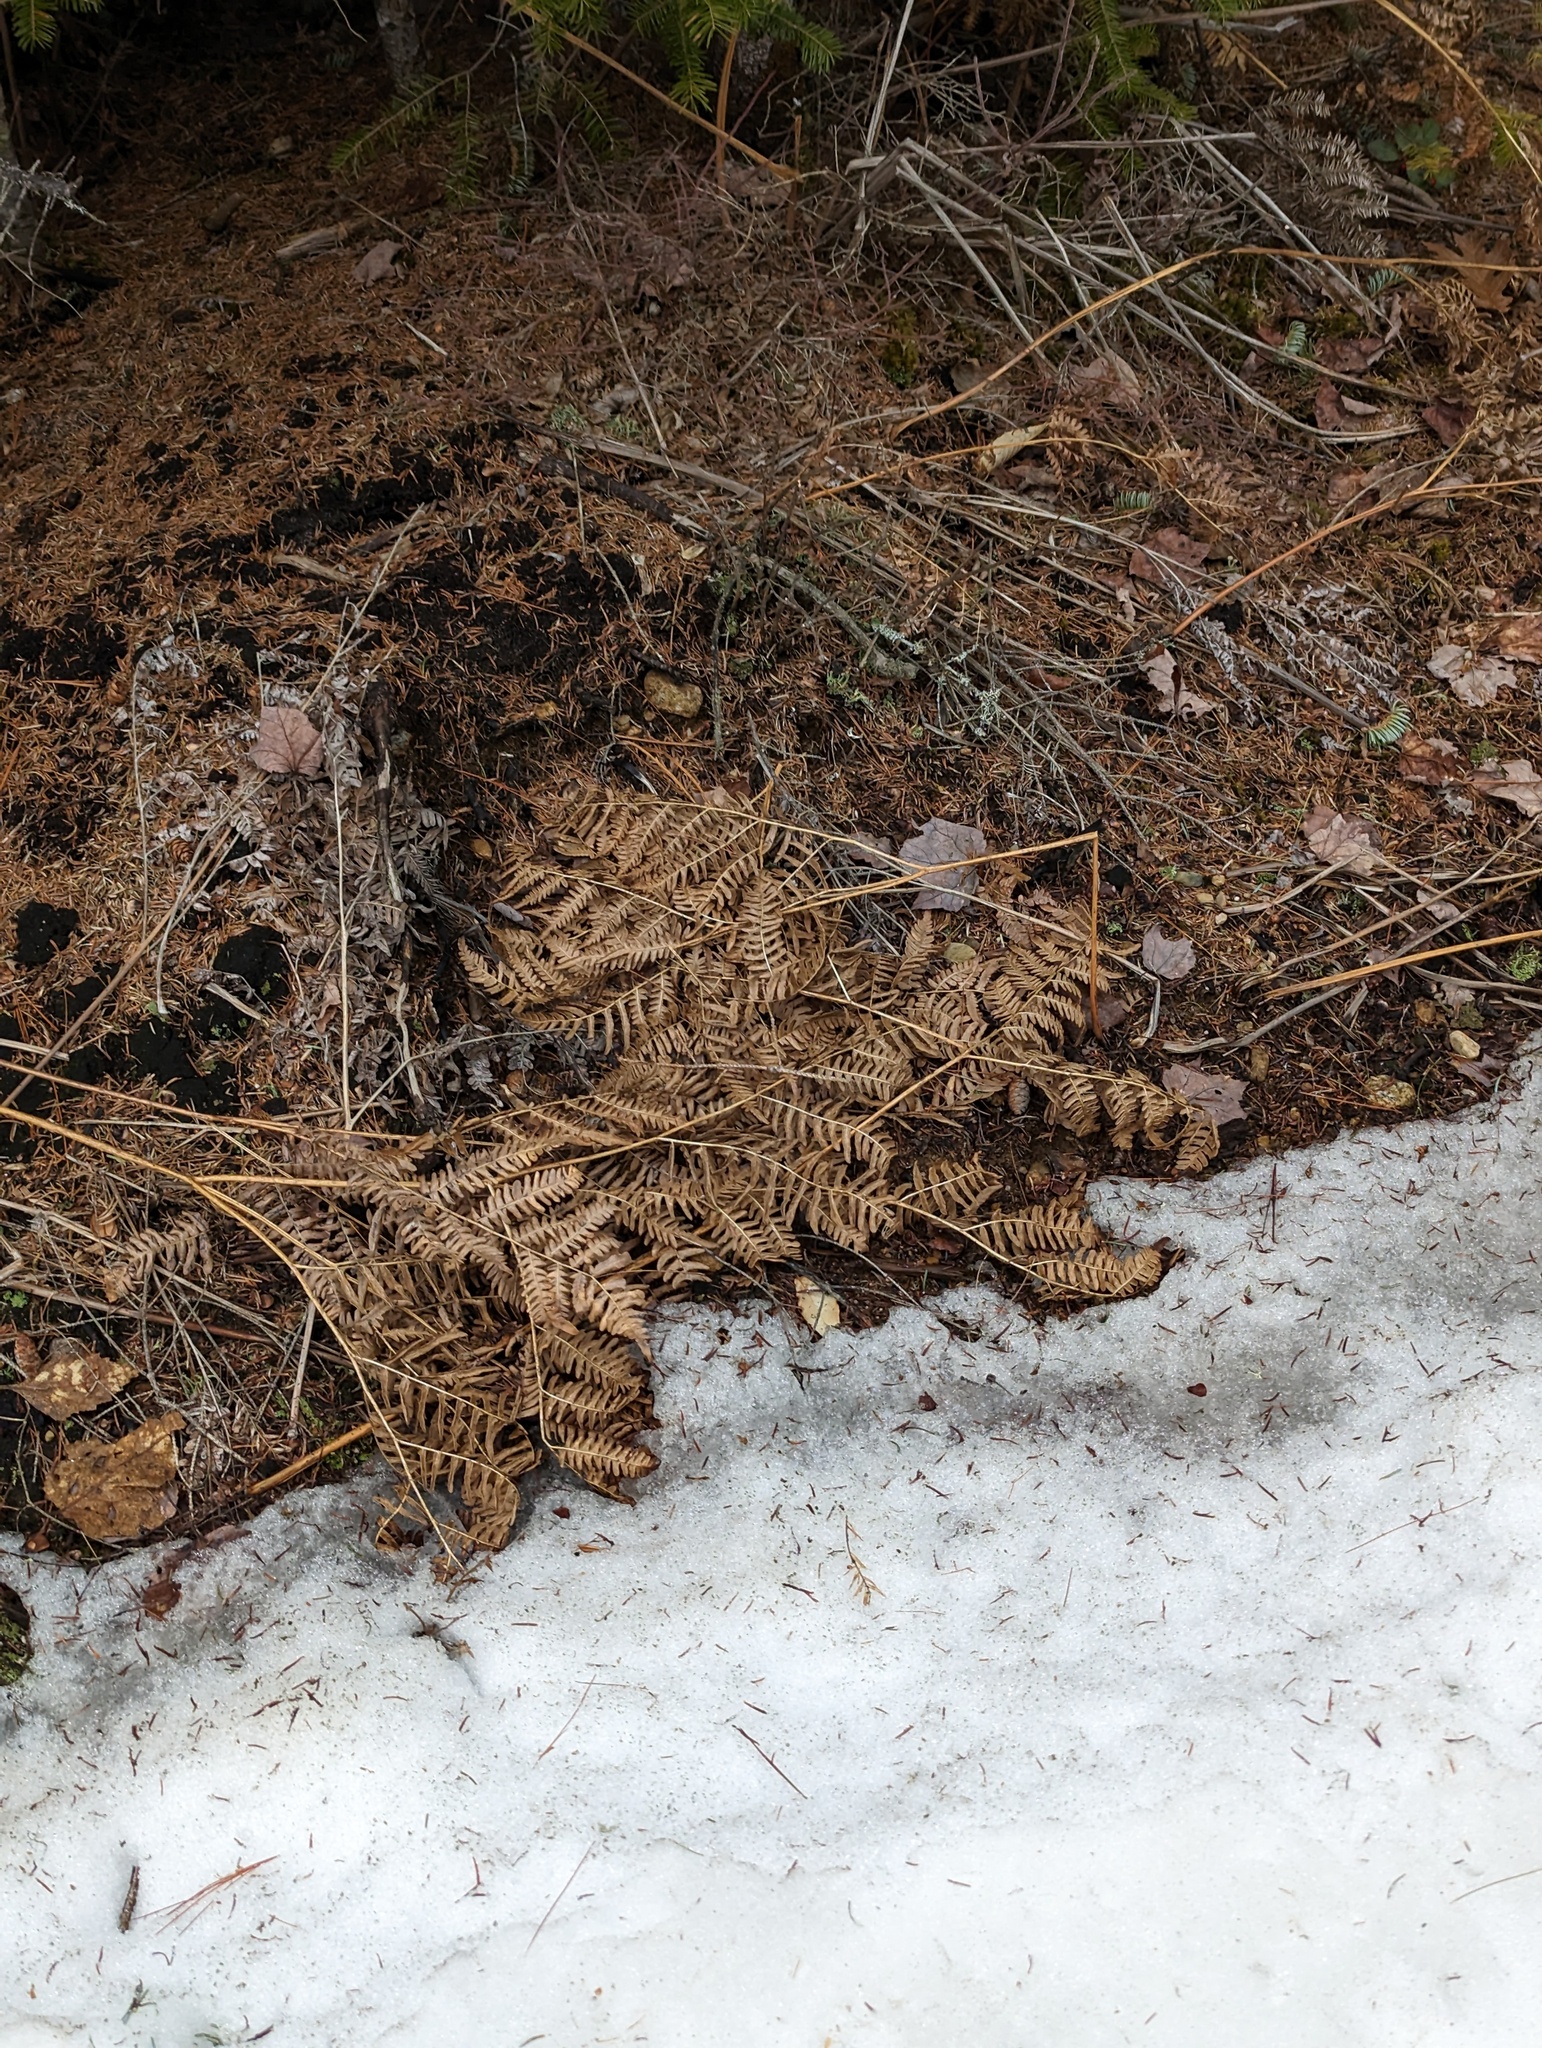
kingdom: Plantae
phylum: Tracheophyta
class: Polypodiopsida
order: Polypodiales
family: Dennstaedtiaceae
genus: Pteridium
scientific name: Pteridium aquilinum
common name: Bracken
